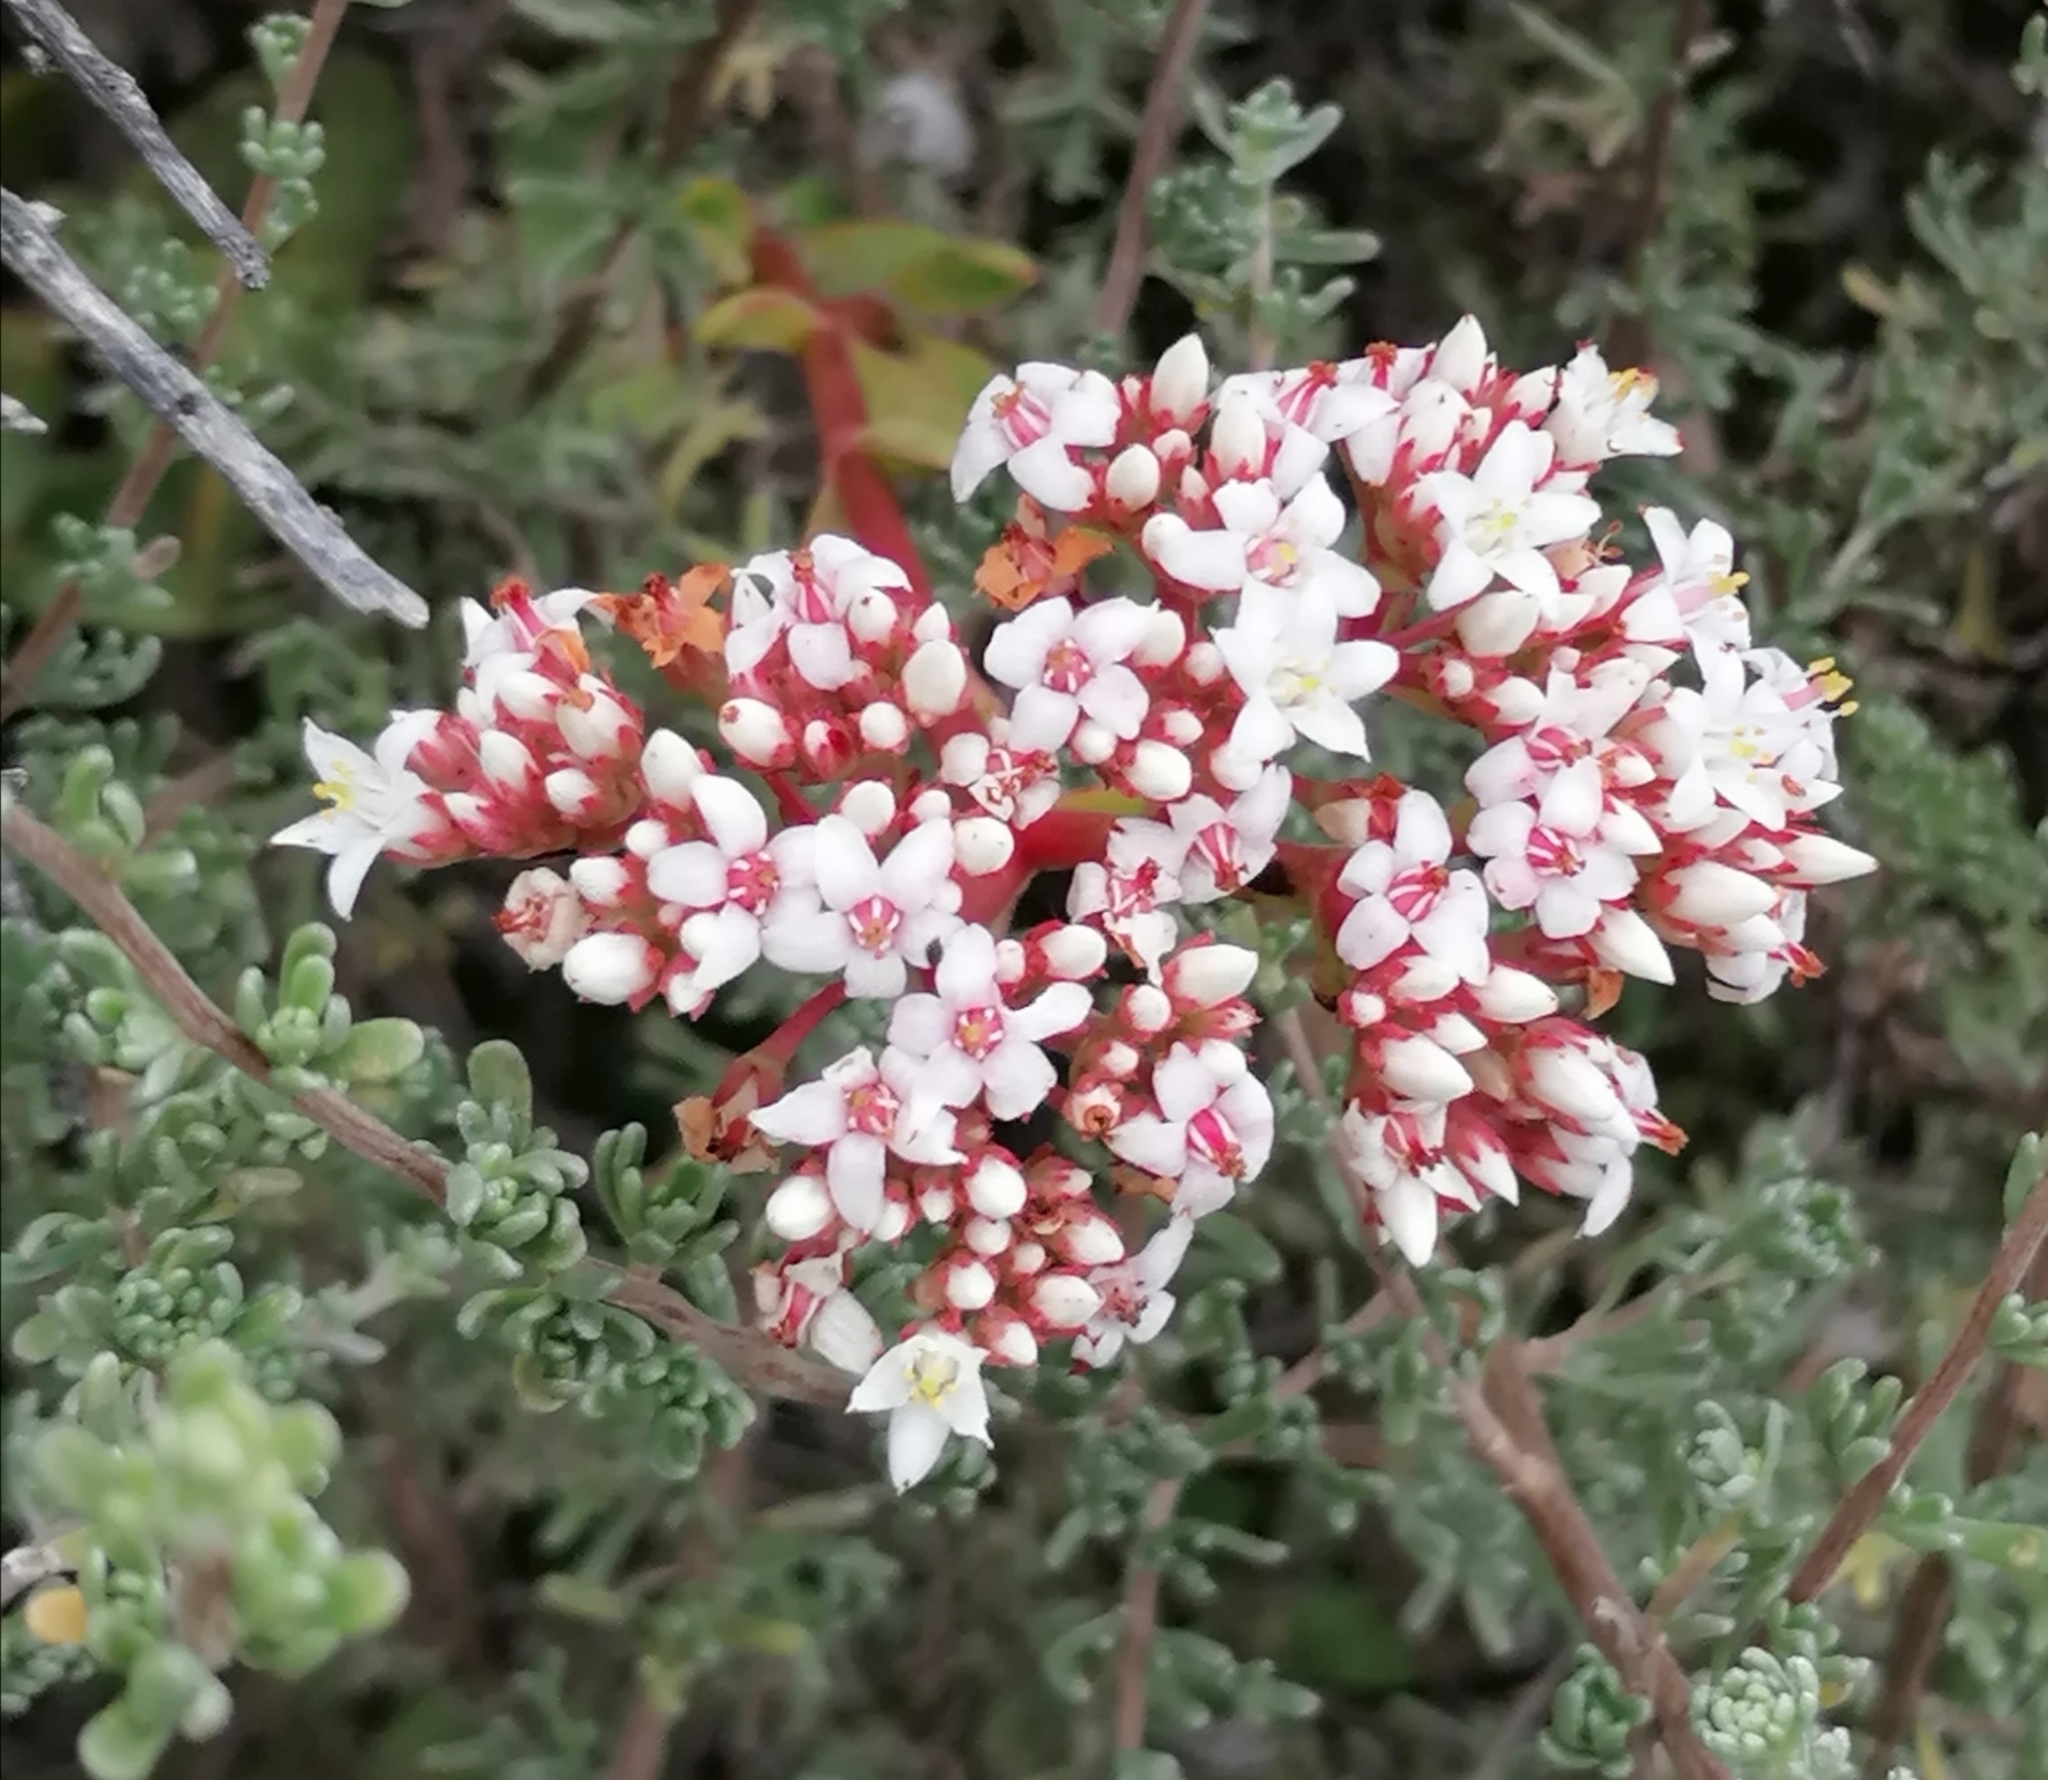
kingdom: Plantae
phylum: Tracheophyta
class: Magnoliopsida
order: Saxifragales
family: Crassulaceae
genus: Crassula
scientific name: Crassula rubricaulis
